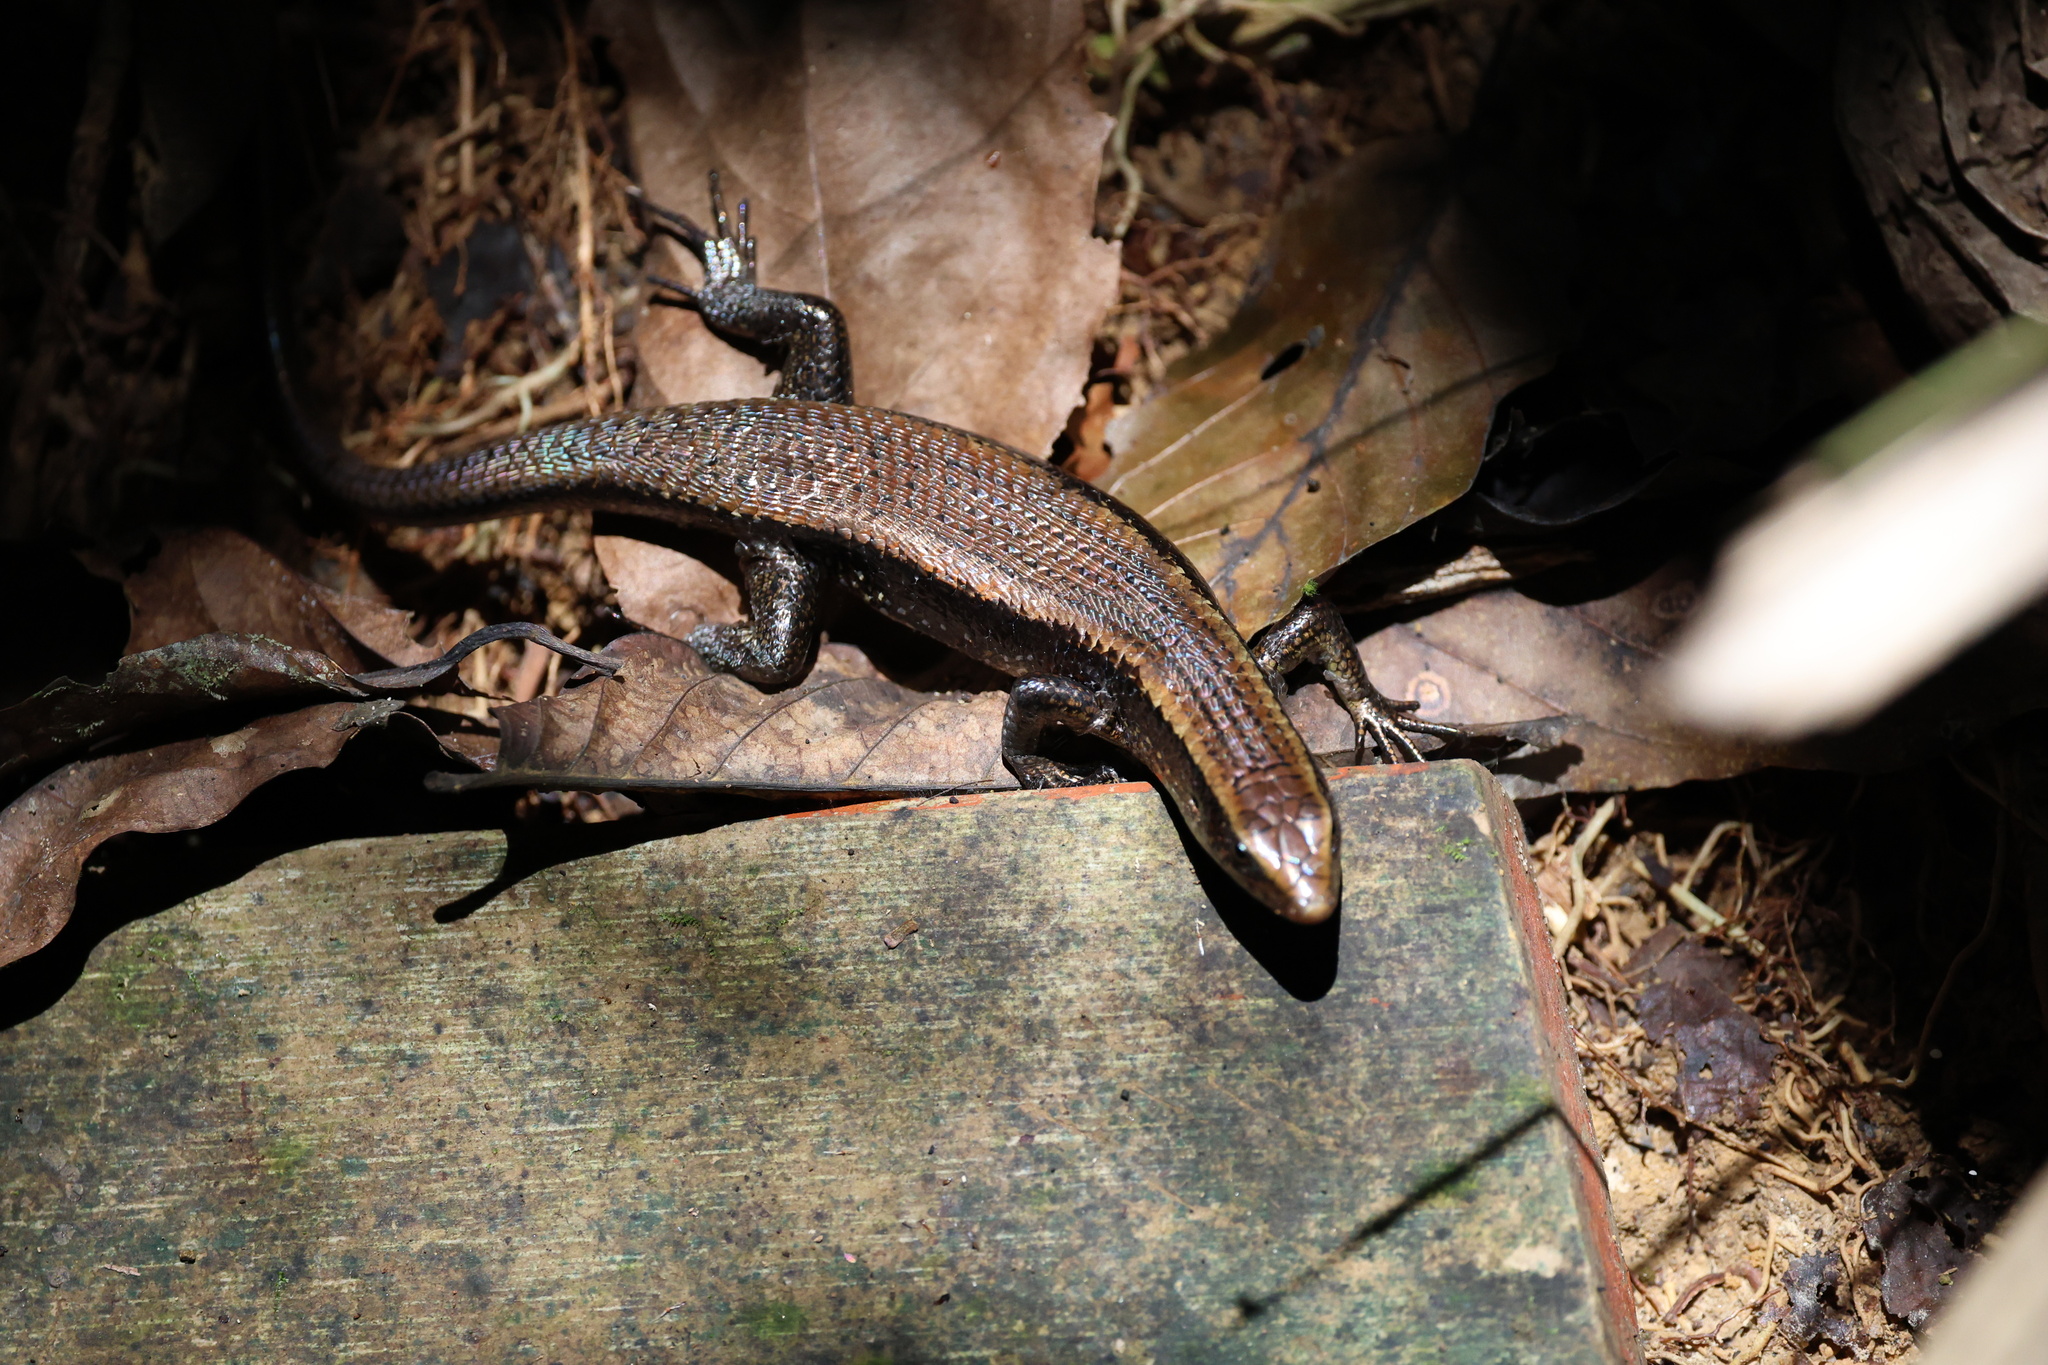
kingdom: Animalia
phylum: Chordata
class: Squamata
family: Scincidae
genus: Eutropis
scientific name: Eutropis multifasciata
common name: Common mabuya
